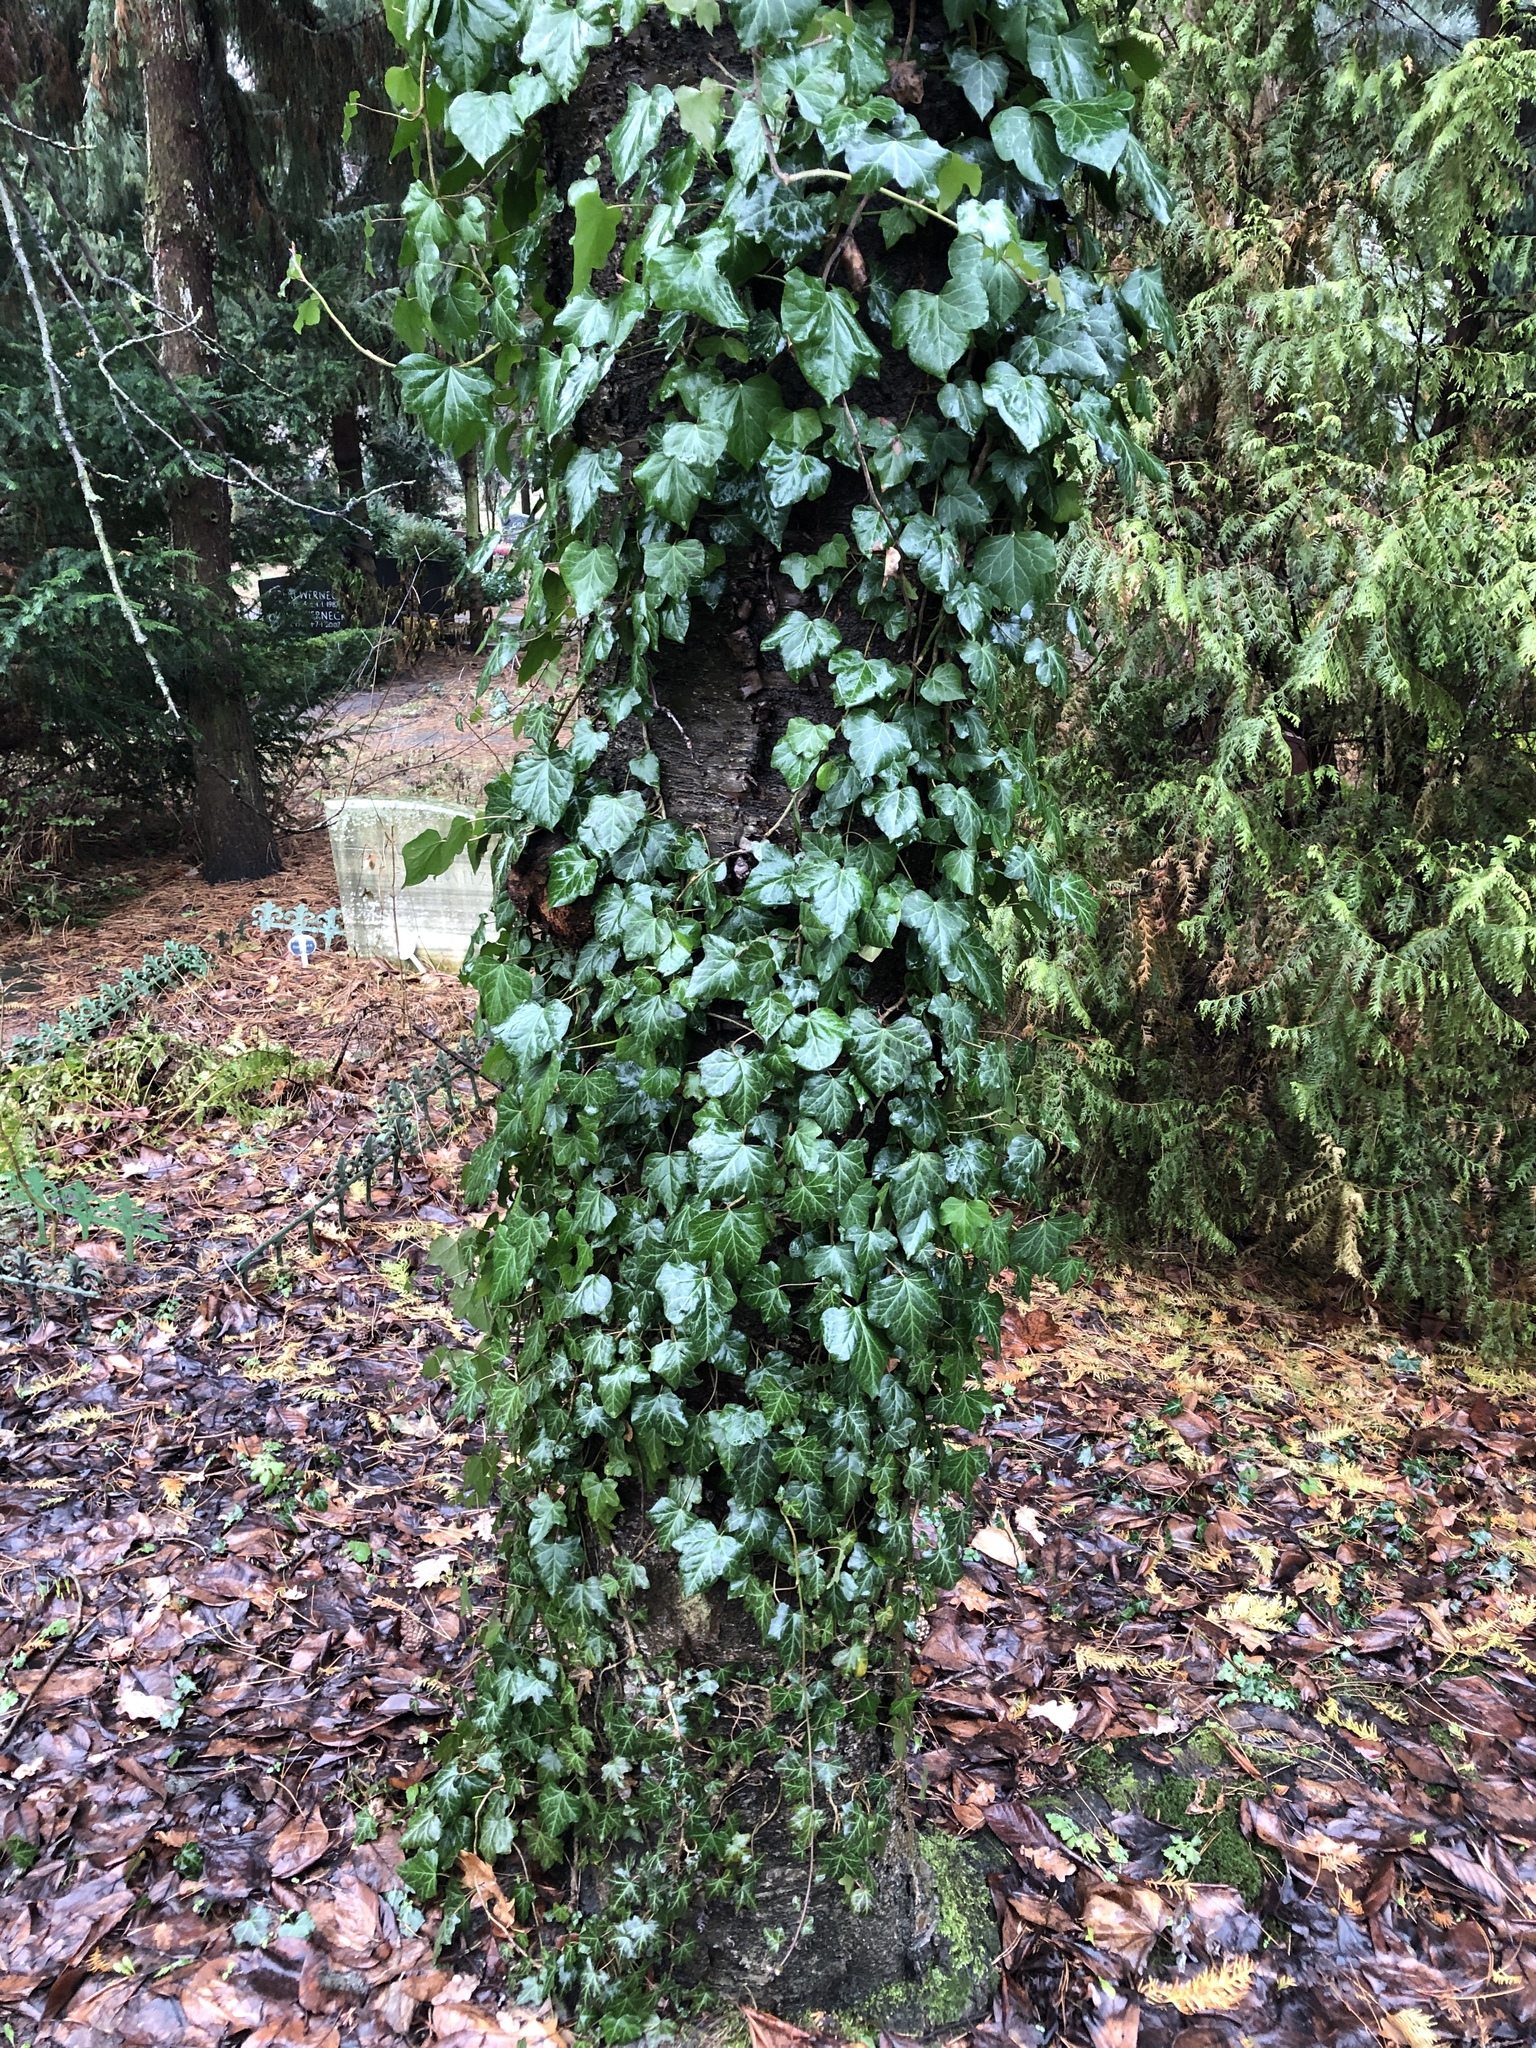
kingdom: Plantae
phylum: Tracheophyta
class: Magnoliopsida
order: Apiales
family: Araliaceae
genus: Hedera
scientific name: Hedera helix
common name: Ivy
